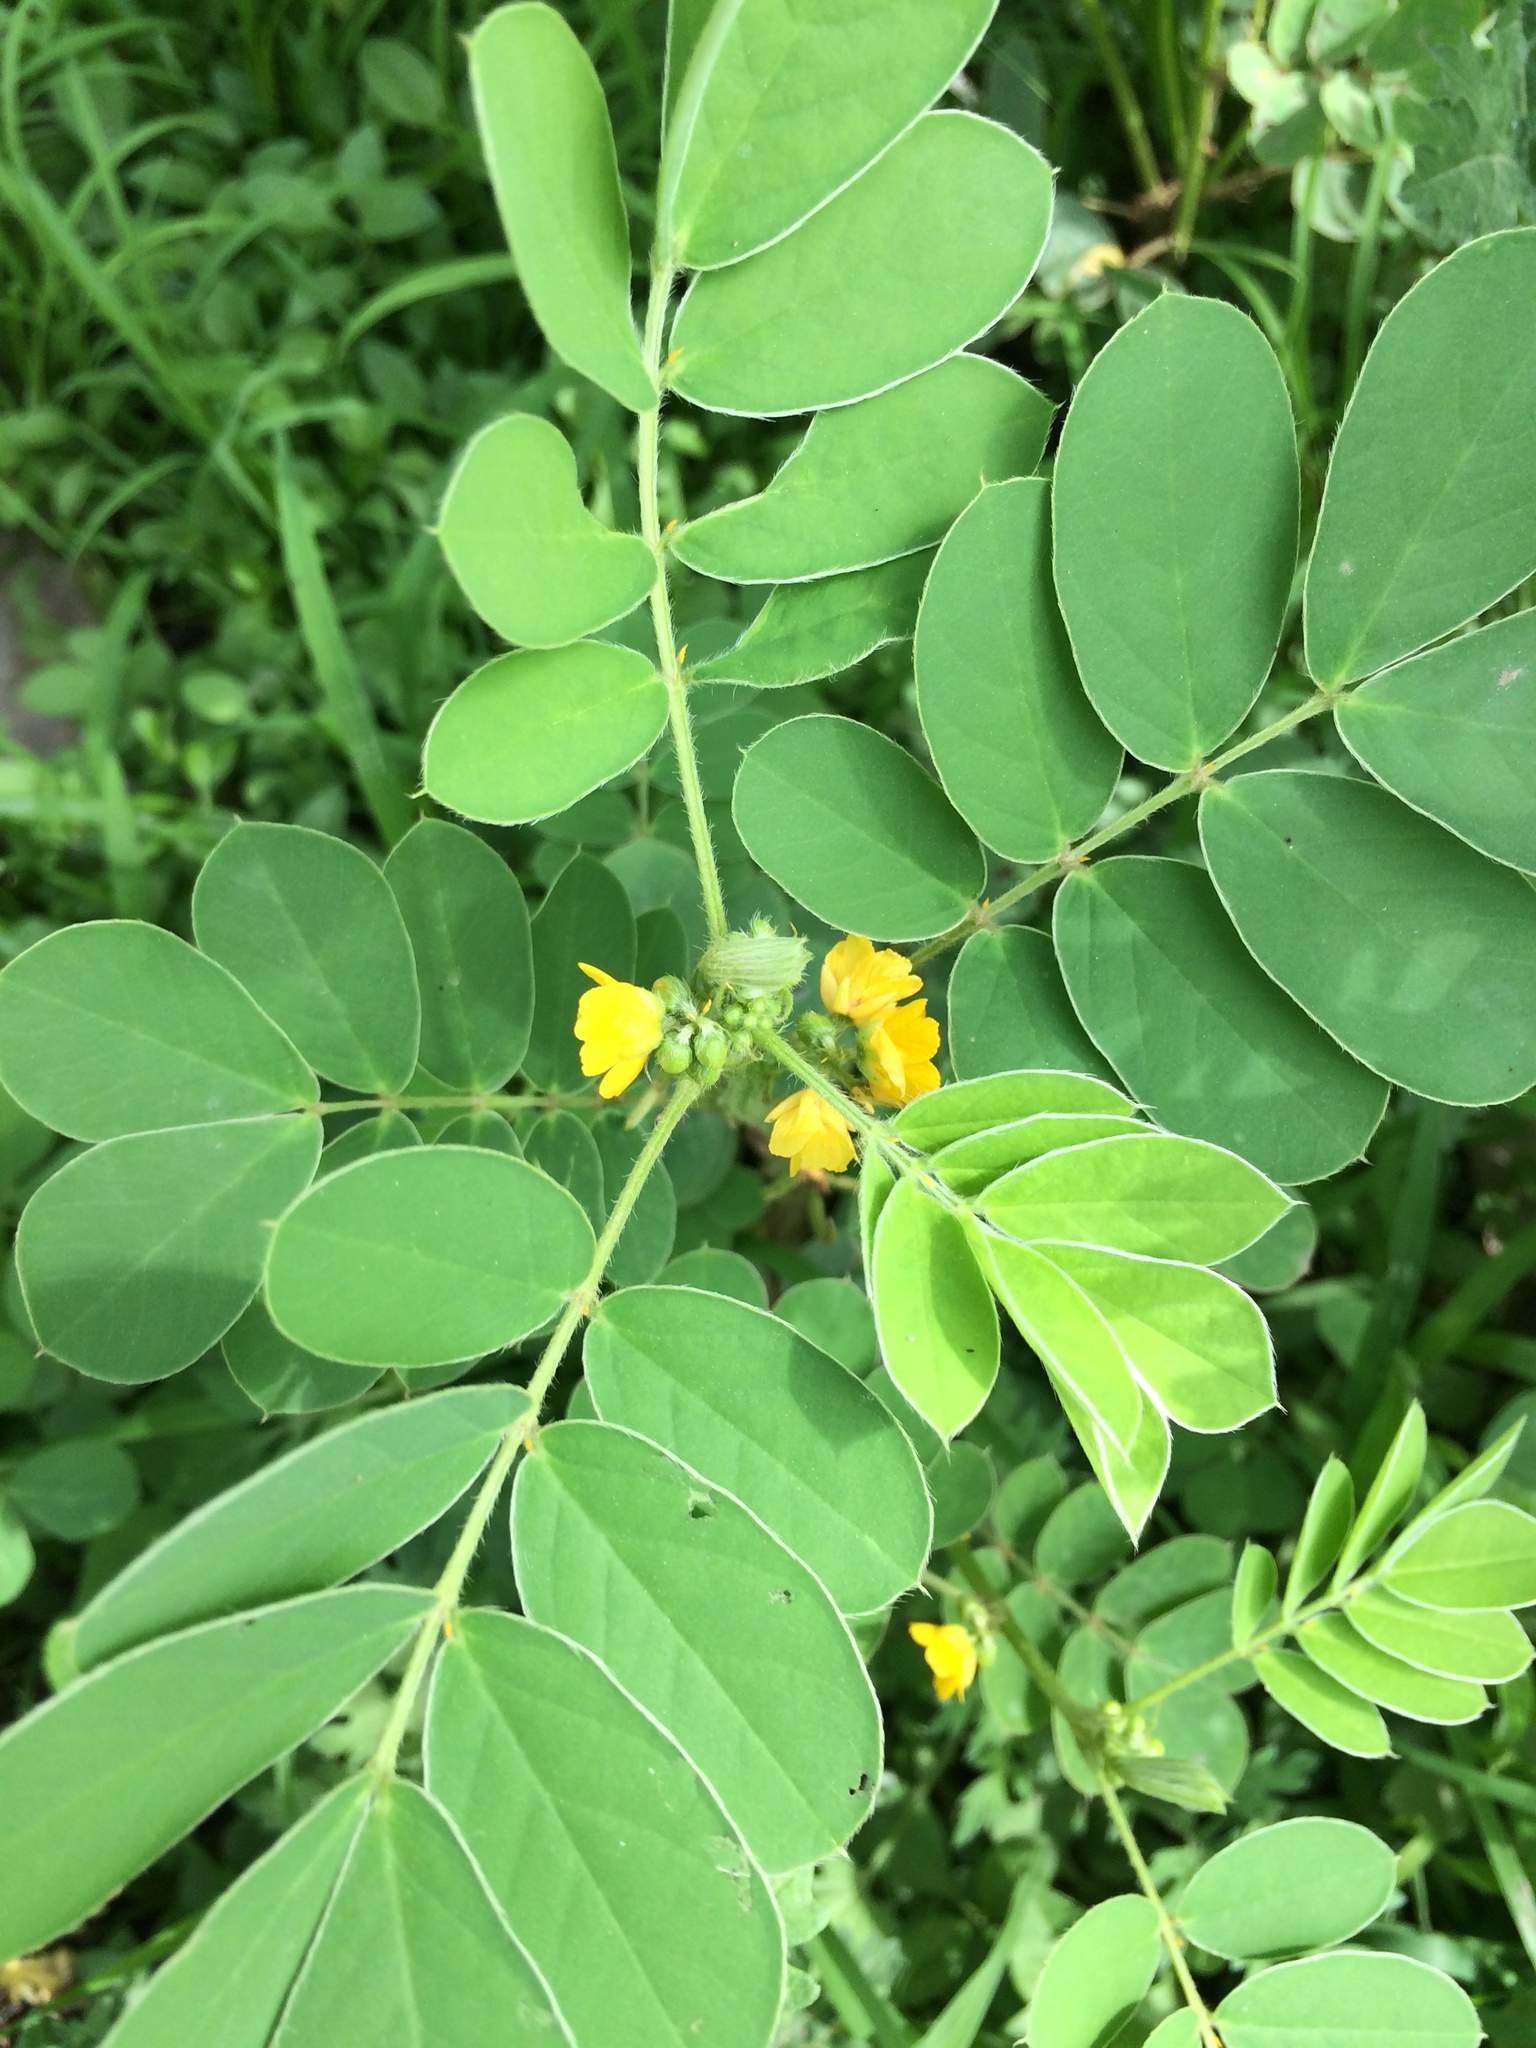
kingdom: Plantae
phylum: Tracheophyta
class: Magnoliopsida
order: Fabales
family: Fabaceae
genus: Senna
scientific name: Senna uniflora
